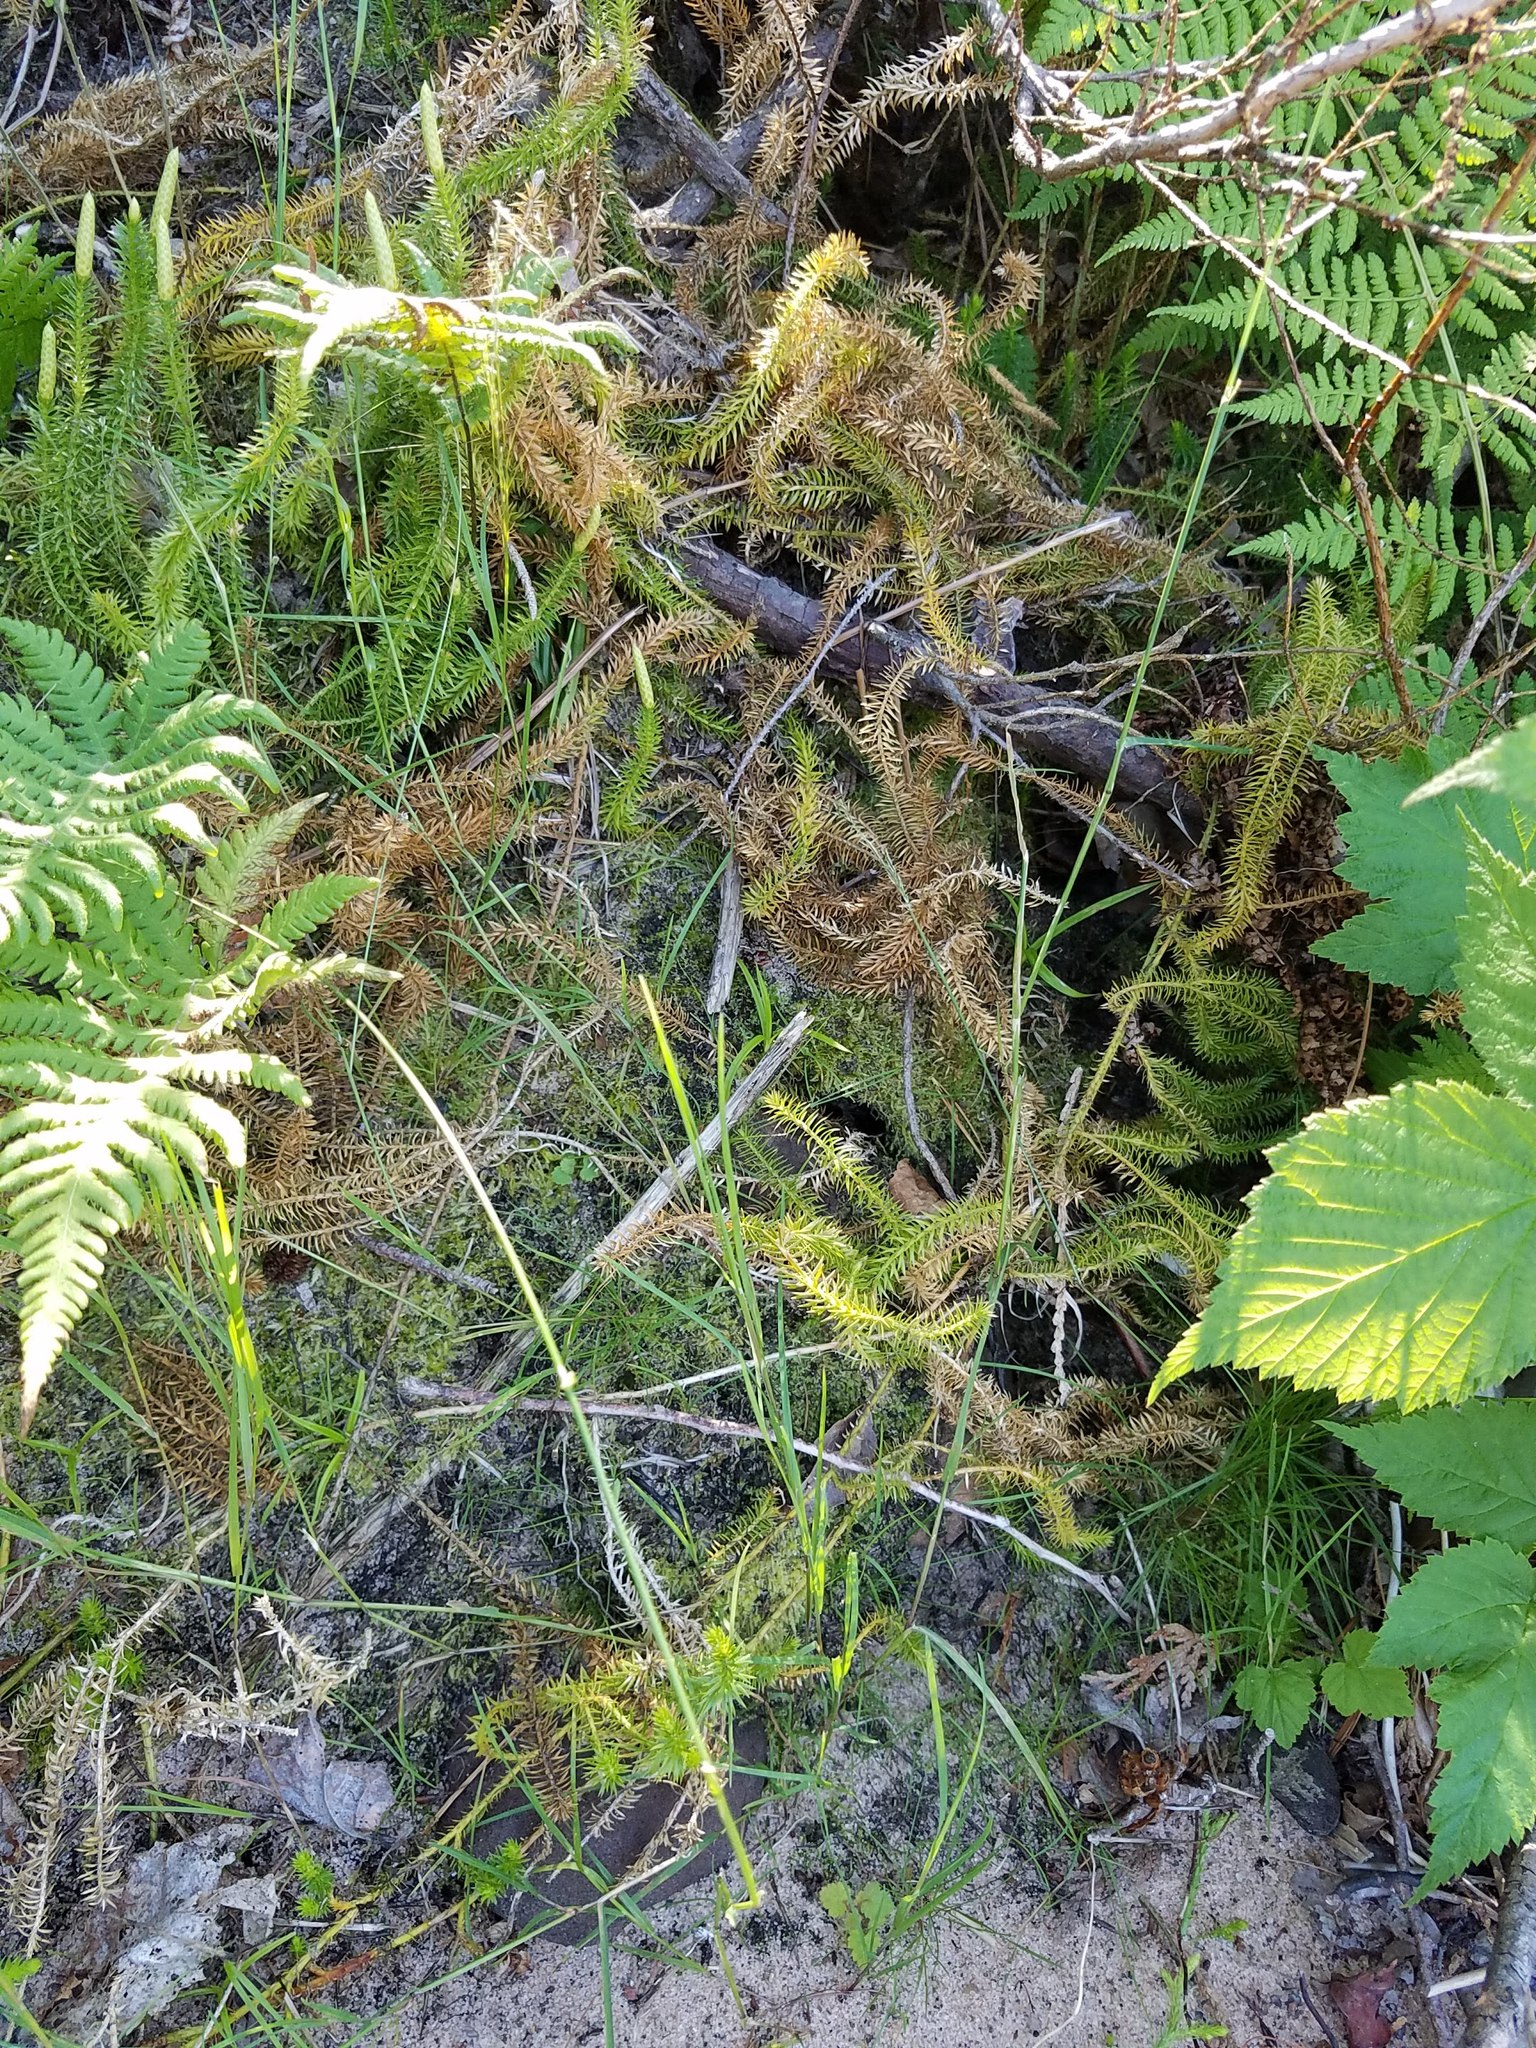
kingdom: Plantae
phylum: Tracheophyta
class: Lycopodiopsida
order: Lycopodiales
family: Lycopodiaceae
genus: Spinulum
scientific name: Spinulum annotinum
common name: Interrupted club-moss
